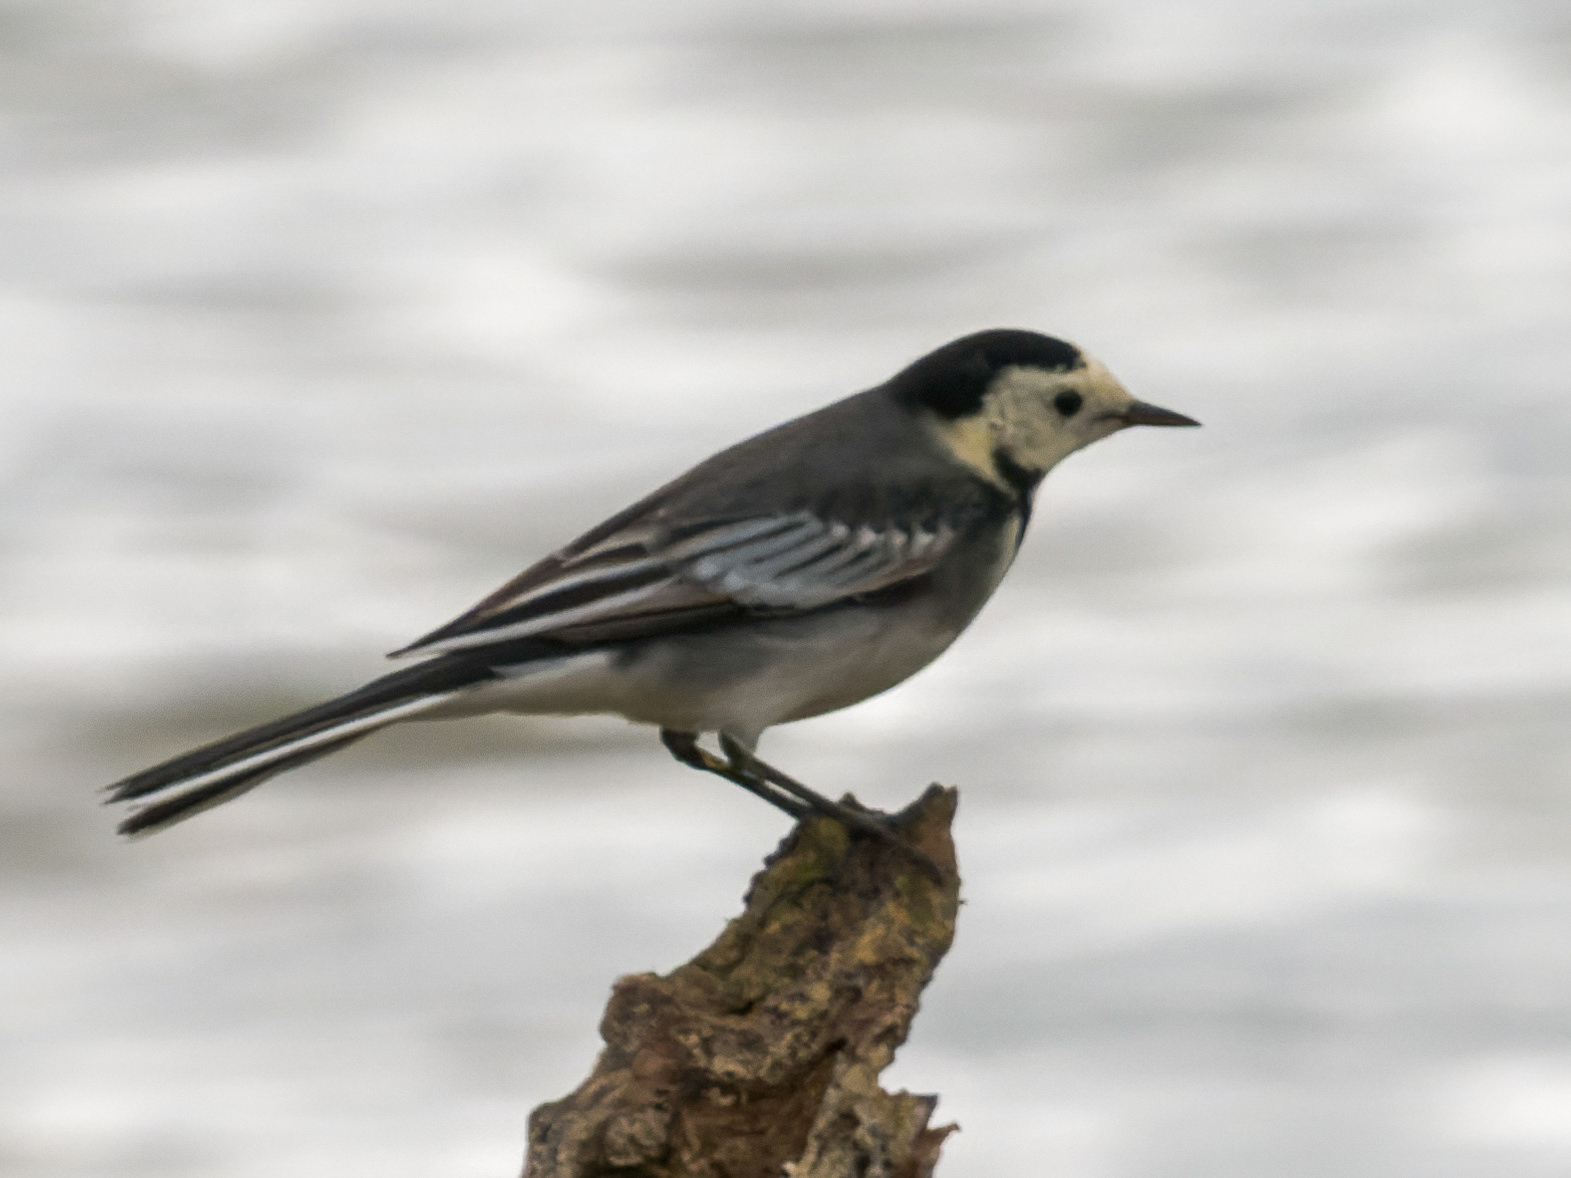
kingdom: Animalia
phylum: Chordata
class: Aves
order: Passeriformes
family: Motacillidae
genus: Motacilla
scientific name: Motacilla alba
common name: White wagtail
